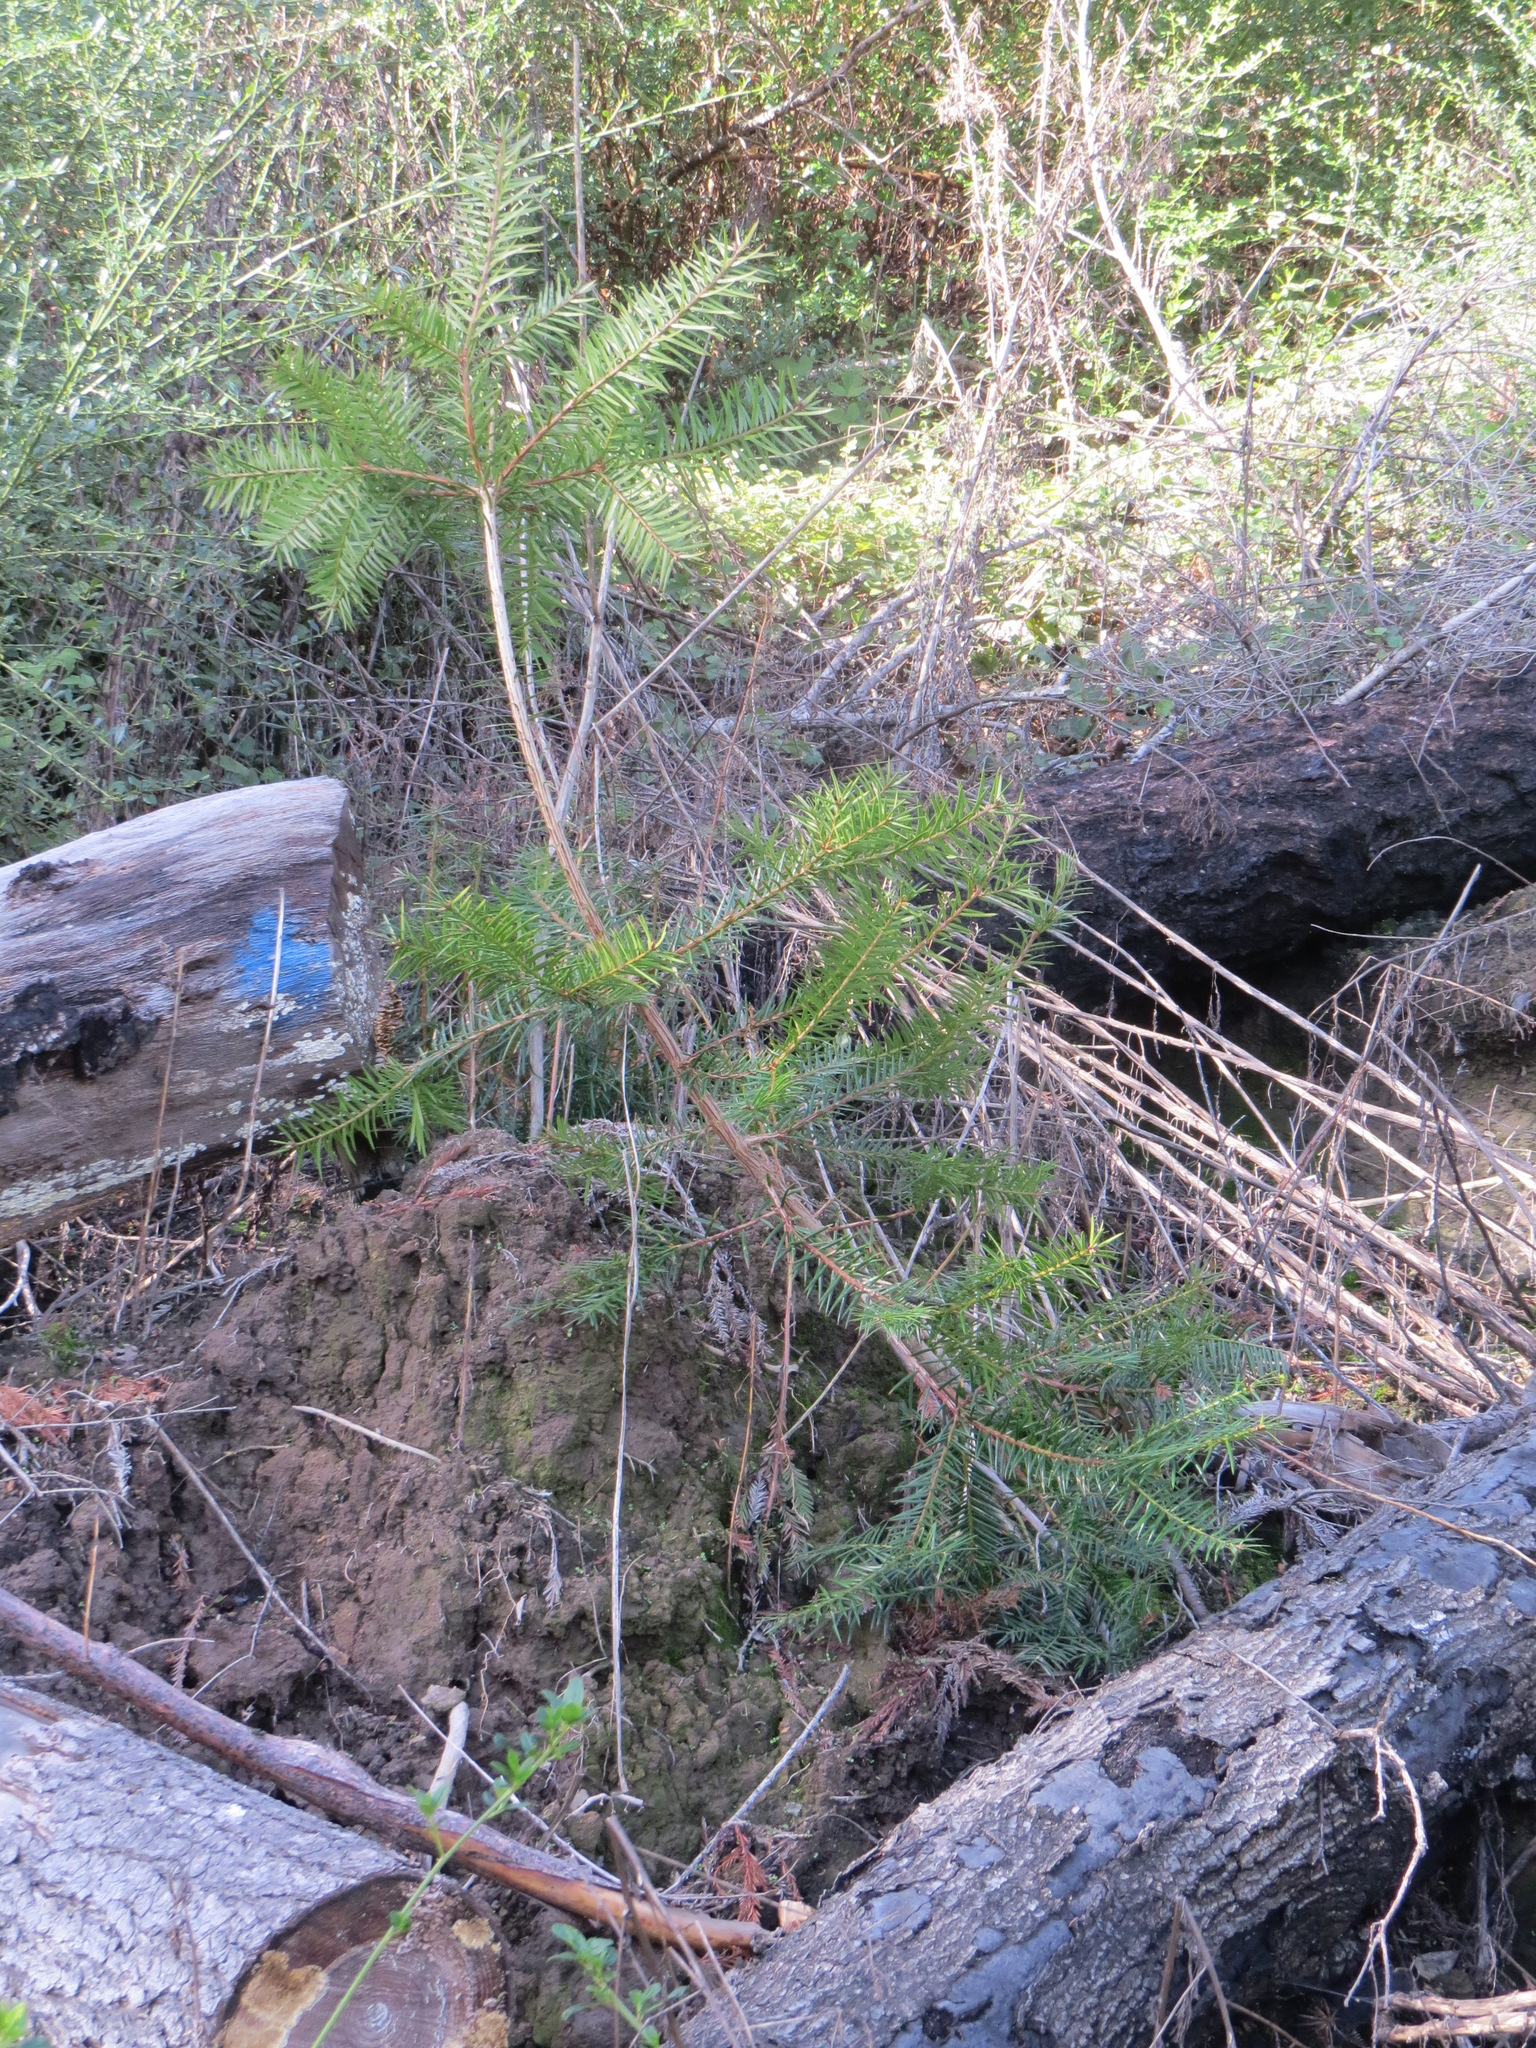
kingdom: Plantae
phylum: Tracheophyta
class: Pinopsida
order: Pinales
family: Taxaceae
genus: Torreya
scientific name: Torreya californica
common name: California torreya
